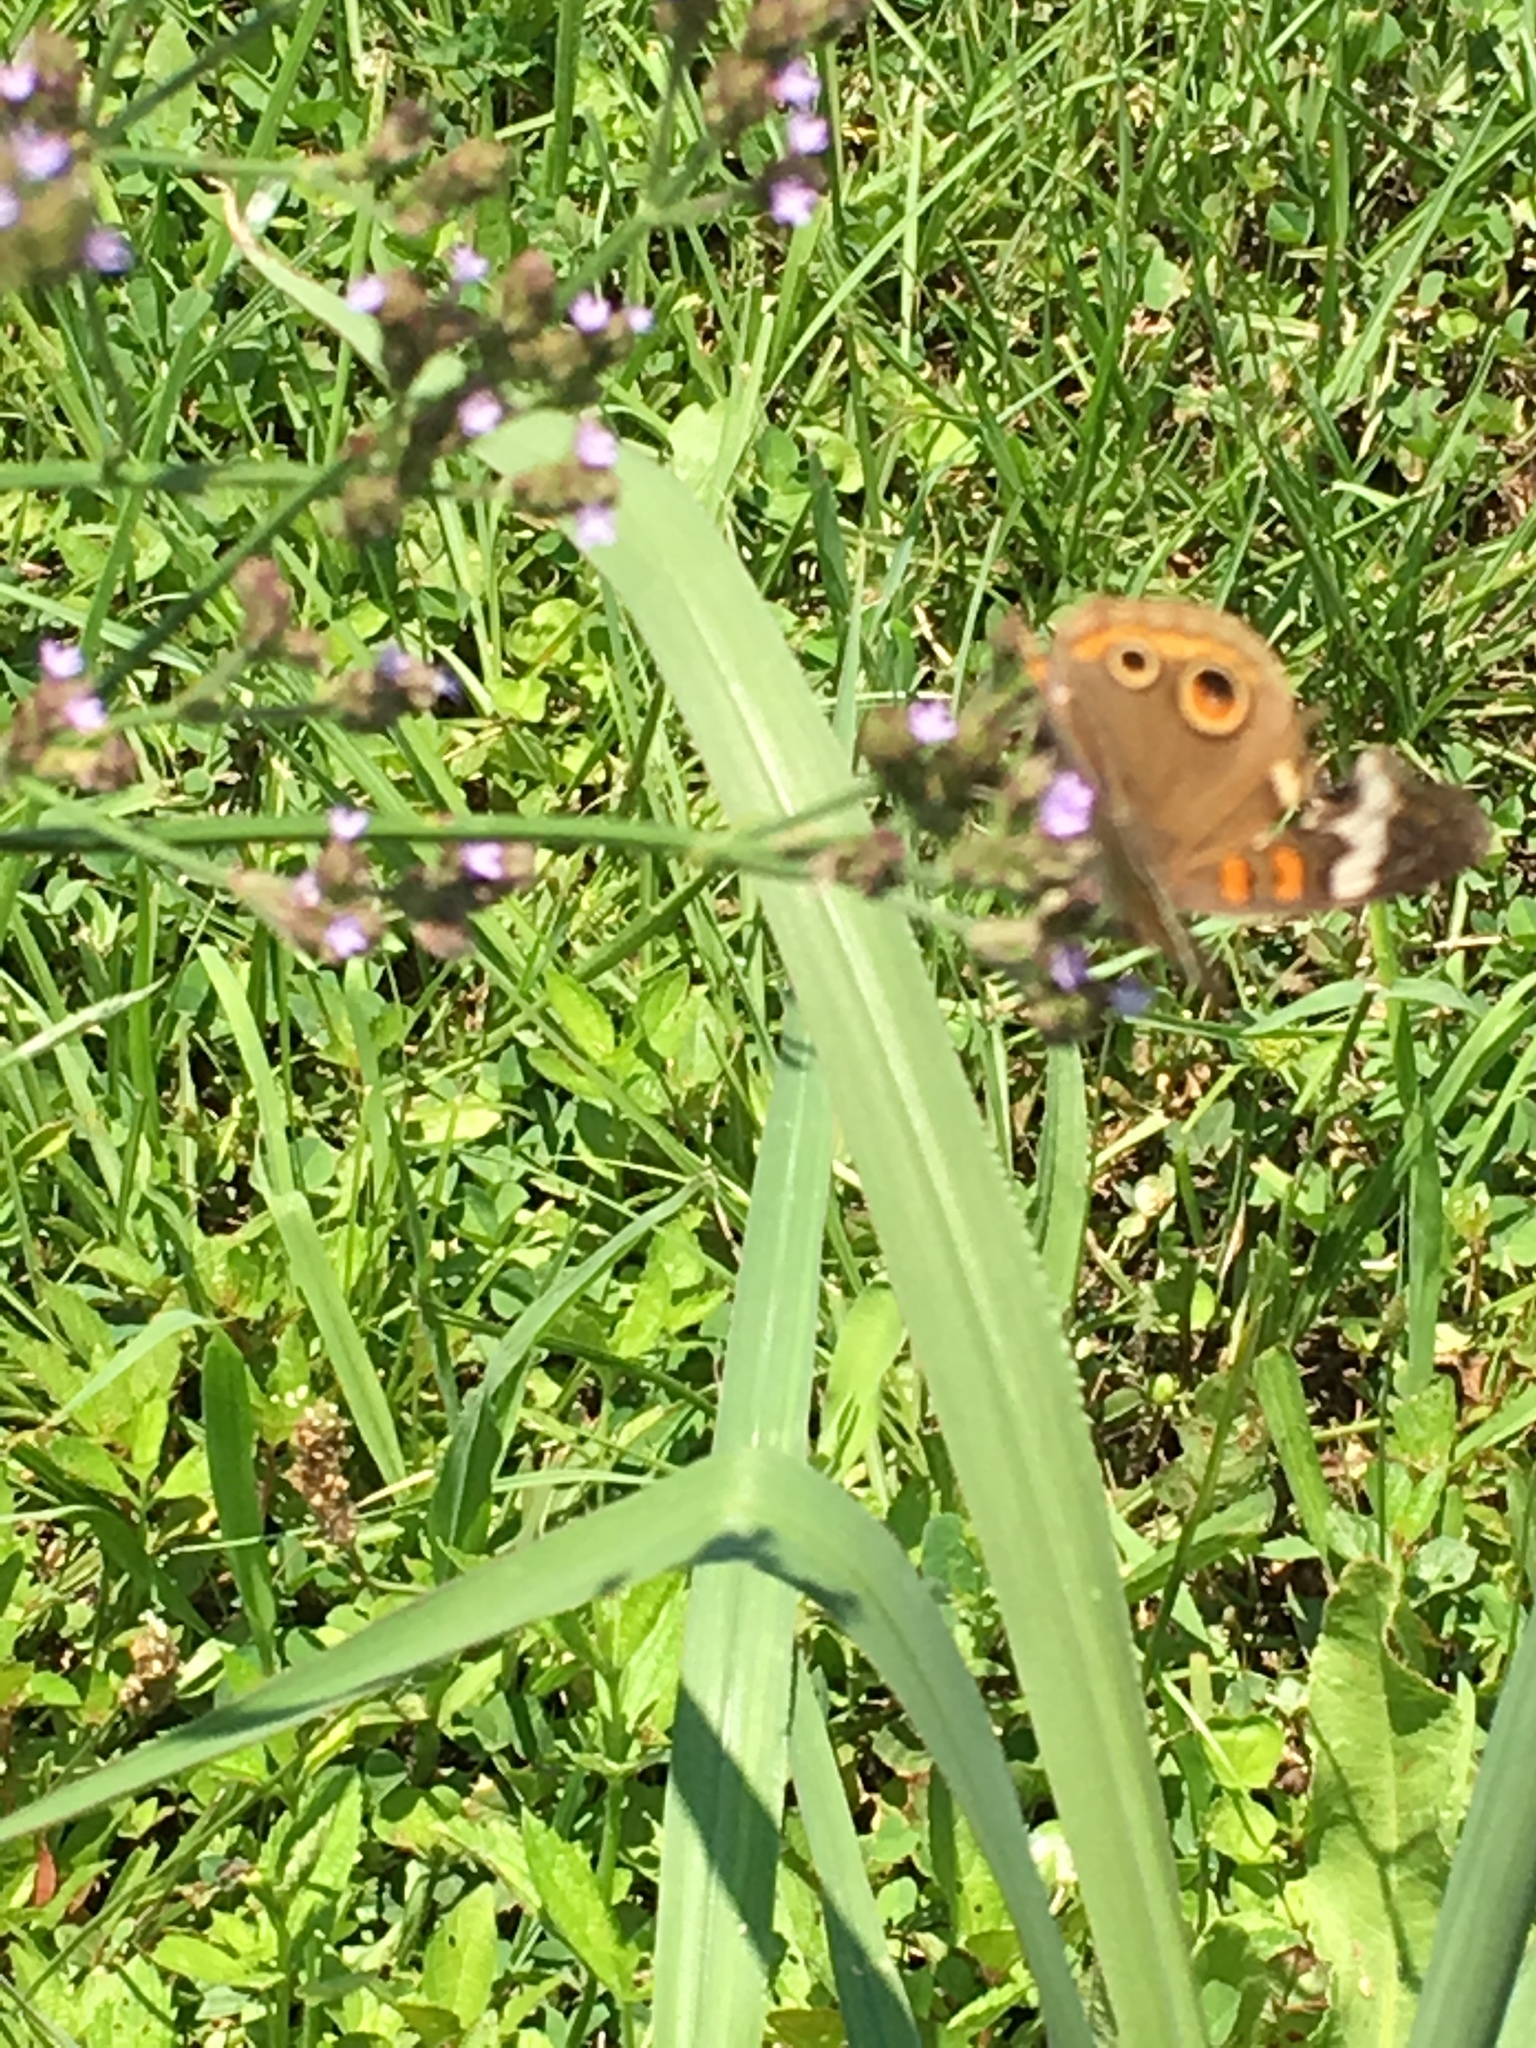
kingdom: Animalia
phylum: Arthropoda
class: Insecta
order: Lepidoptera
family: Nymphalidae
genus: Junonia
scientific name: Junonia coenia
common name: Common buckeye
